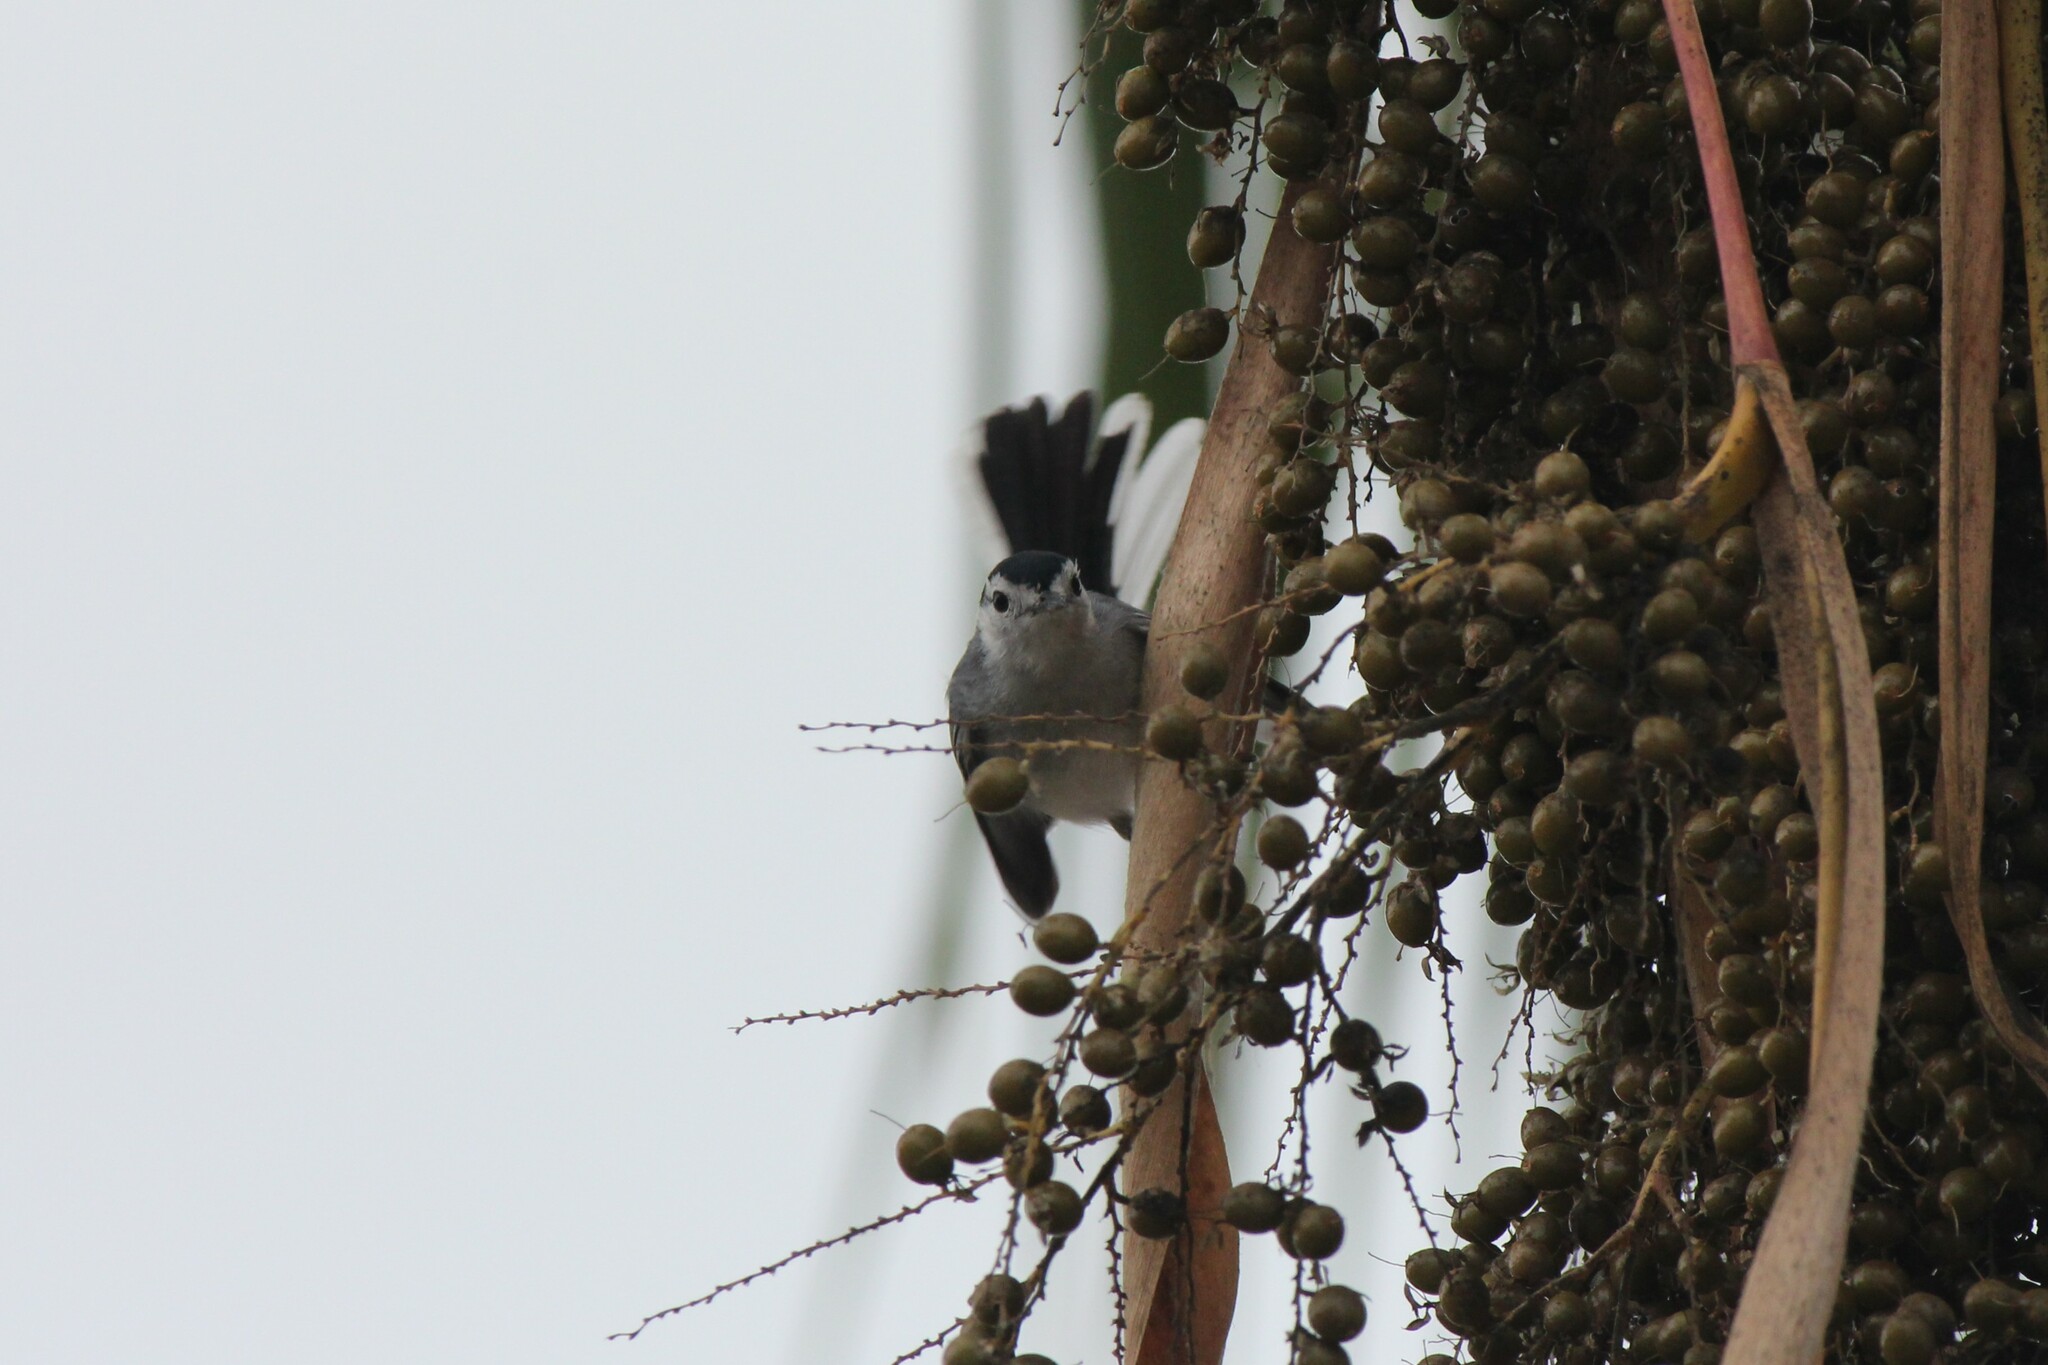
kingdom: Animalia
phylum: Chordata
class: Aves
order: Passeriformes
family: Polioptilidae
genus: Polioptila
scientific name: Polioptila plumbea
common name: Tropical gnatcatcher
